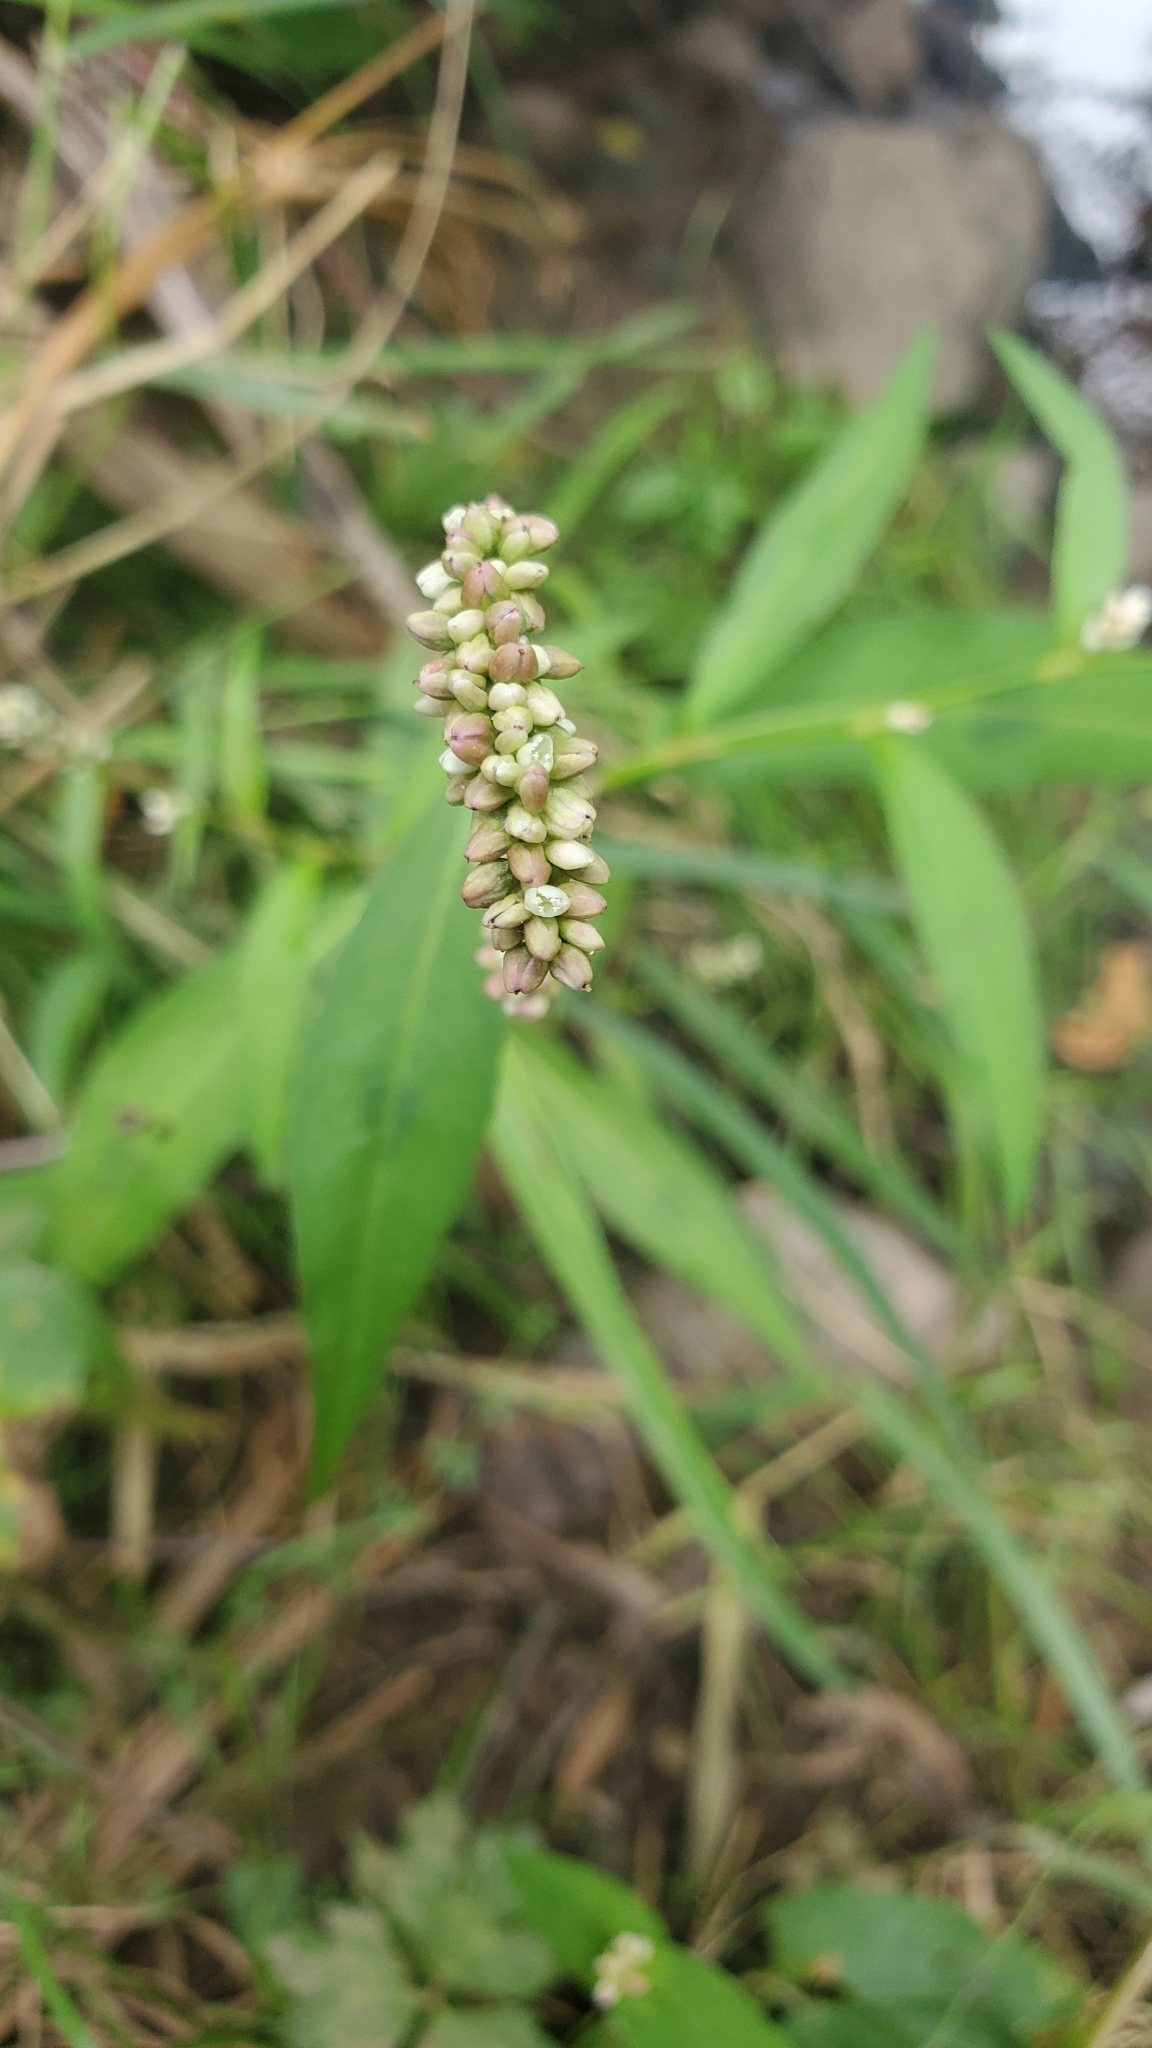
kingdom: Plantae
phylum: Tracheophyta
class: Magnoliopsida
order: Caryophyllales
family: Polygonaceae
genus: Persicaria
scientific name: Persicaria maculosa
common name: Redshank
